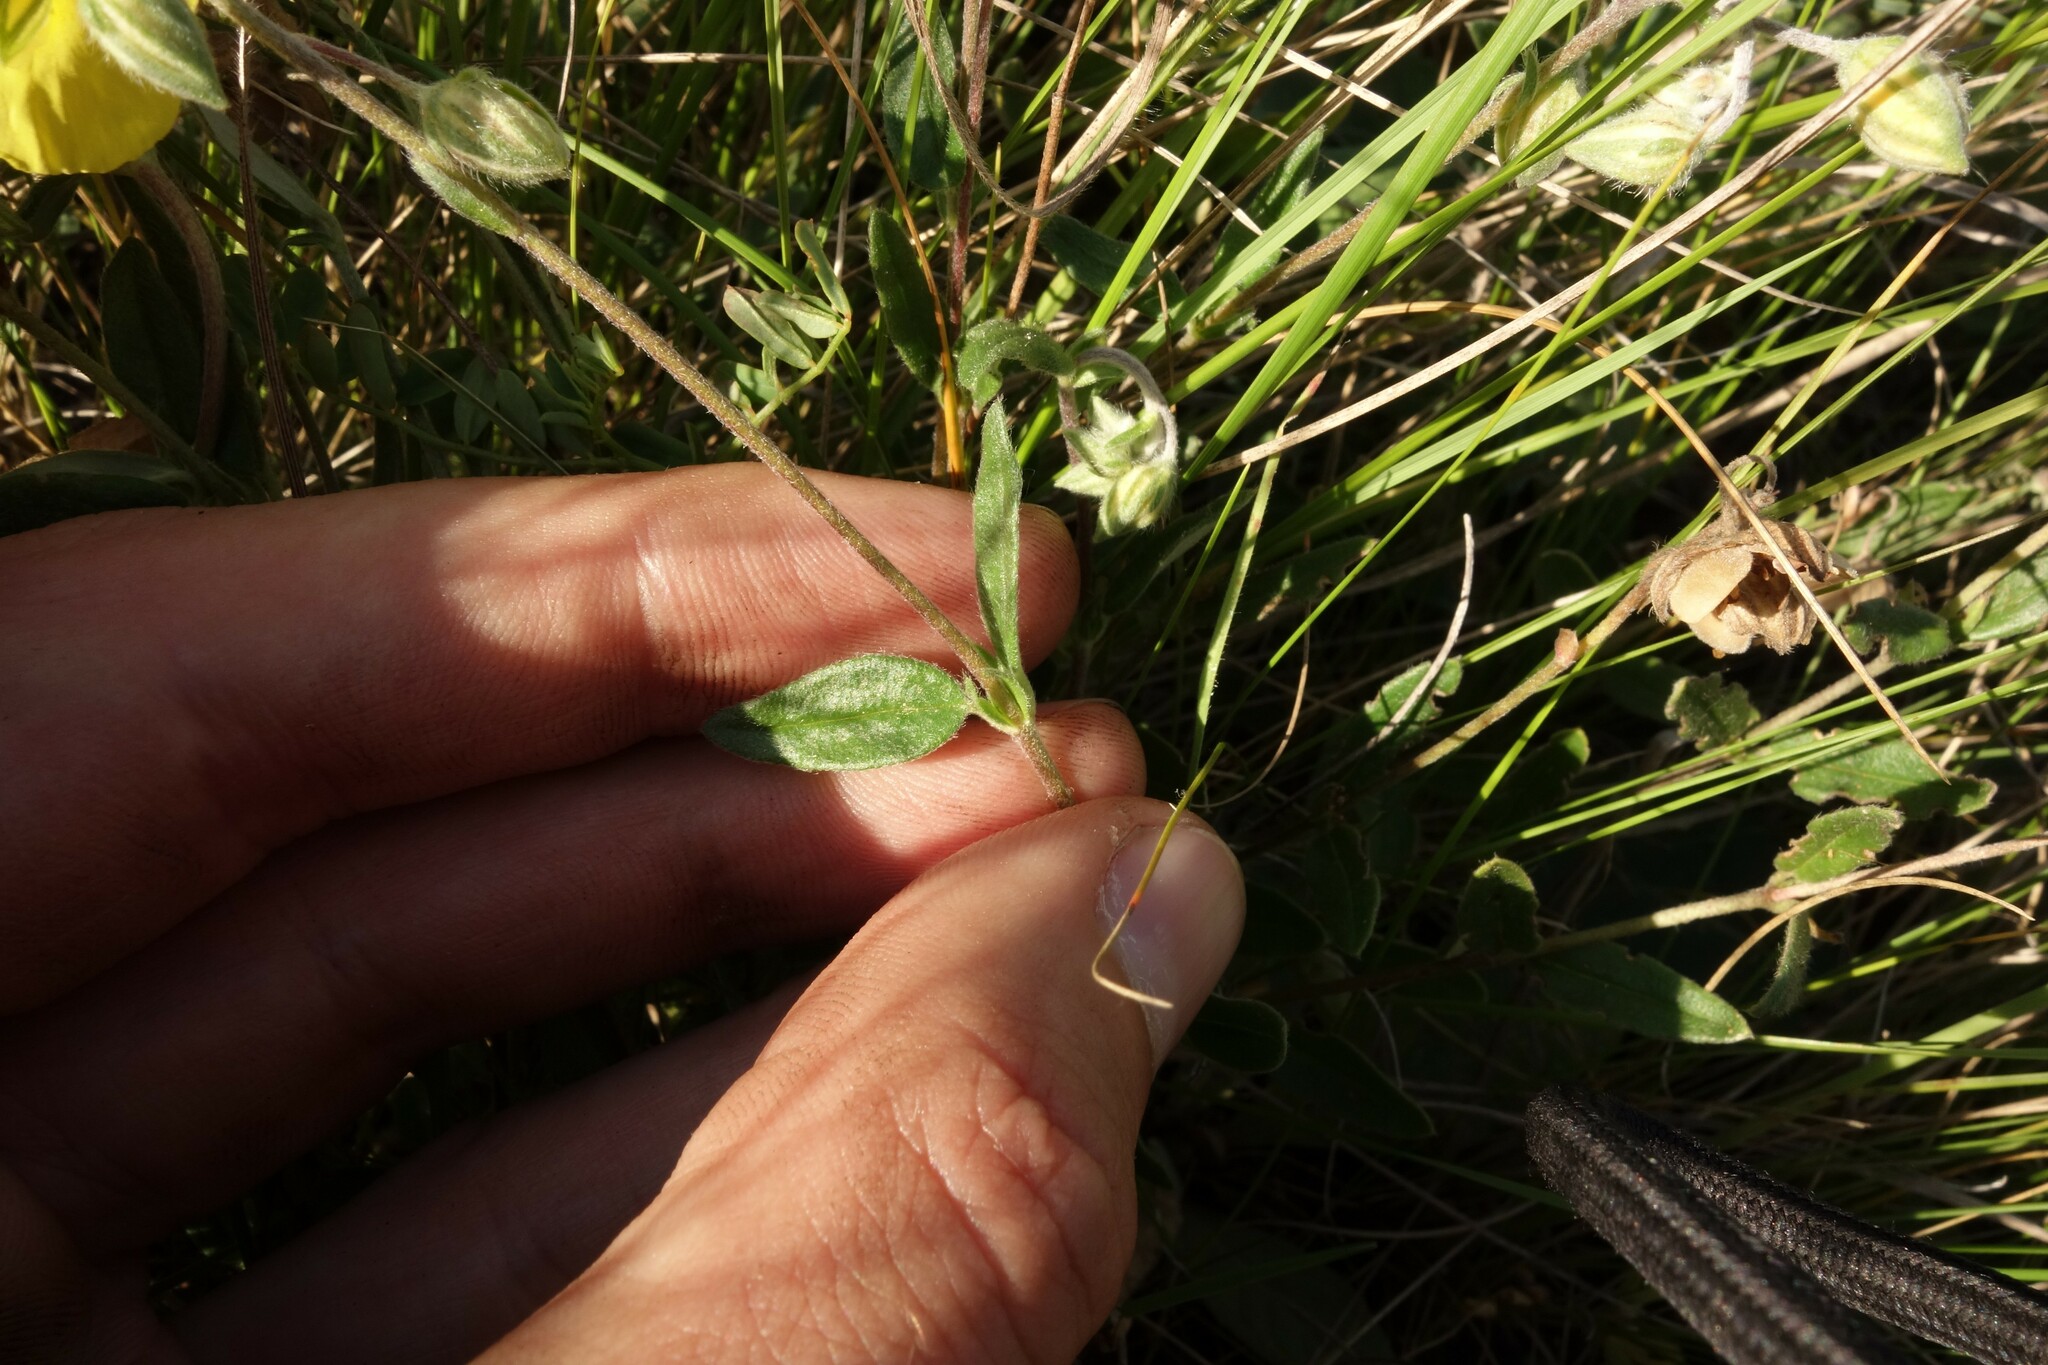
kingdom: Plantae
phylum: Tracheophyta
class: Magnoliopsida
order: Malvales
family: Cistaceae
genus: Helianthemum
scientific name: Helianthemum nummularium
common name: Common rock-rose
